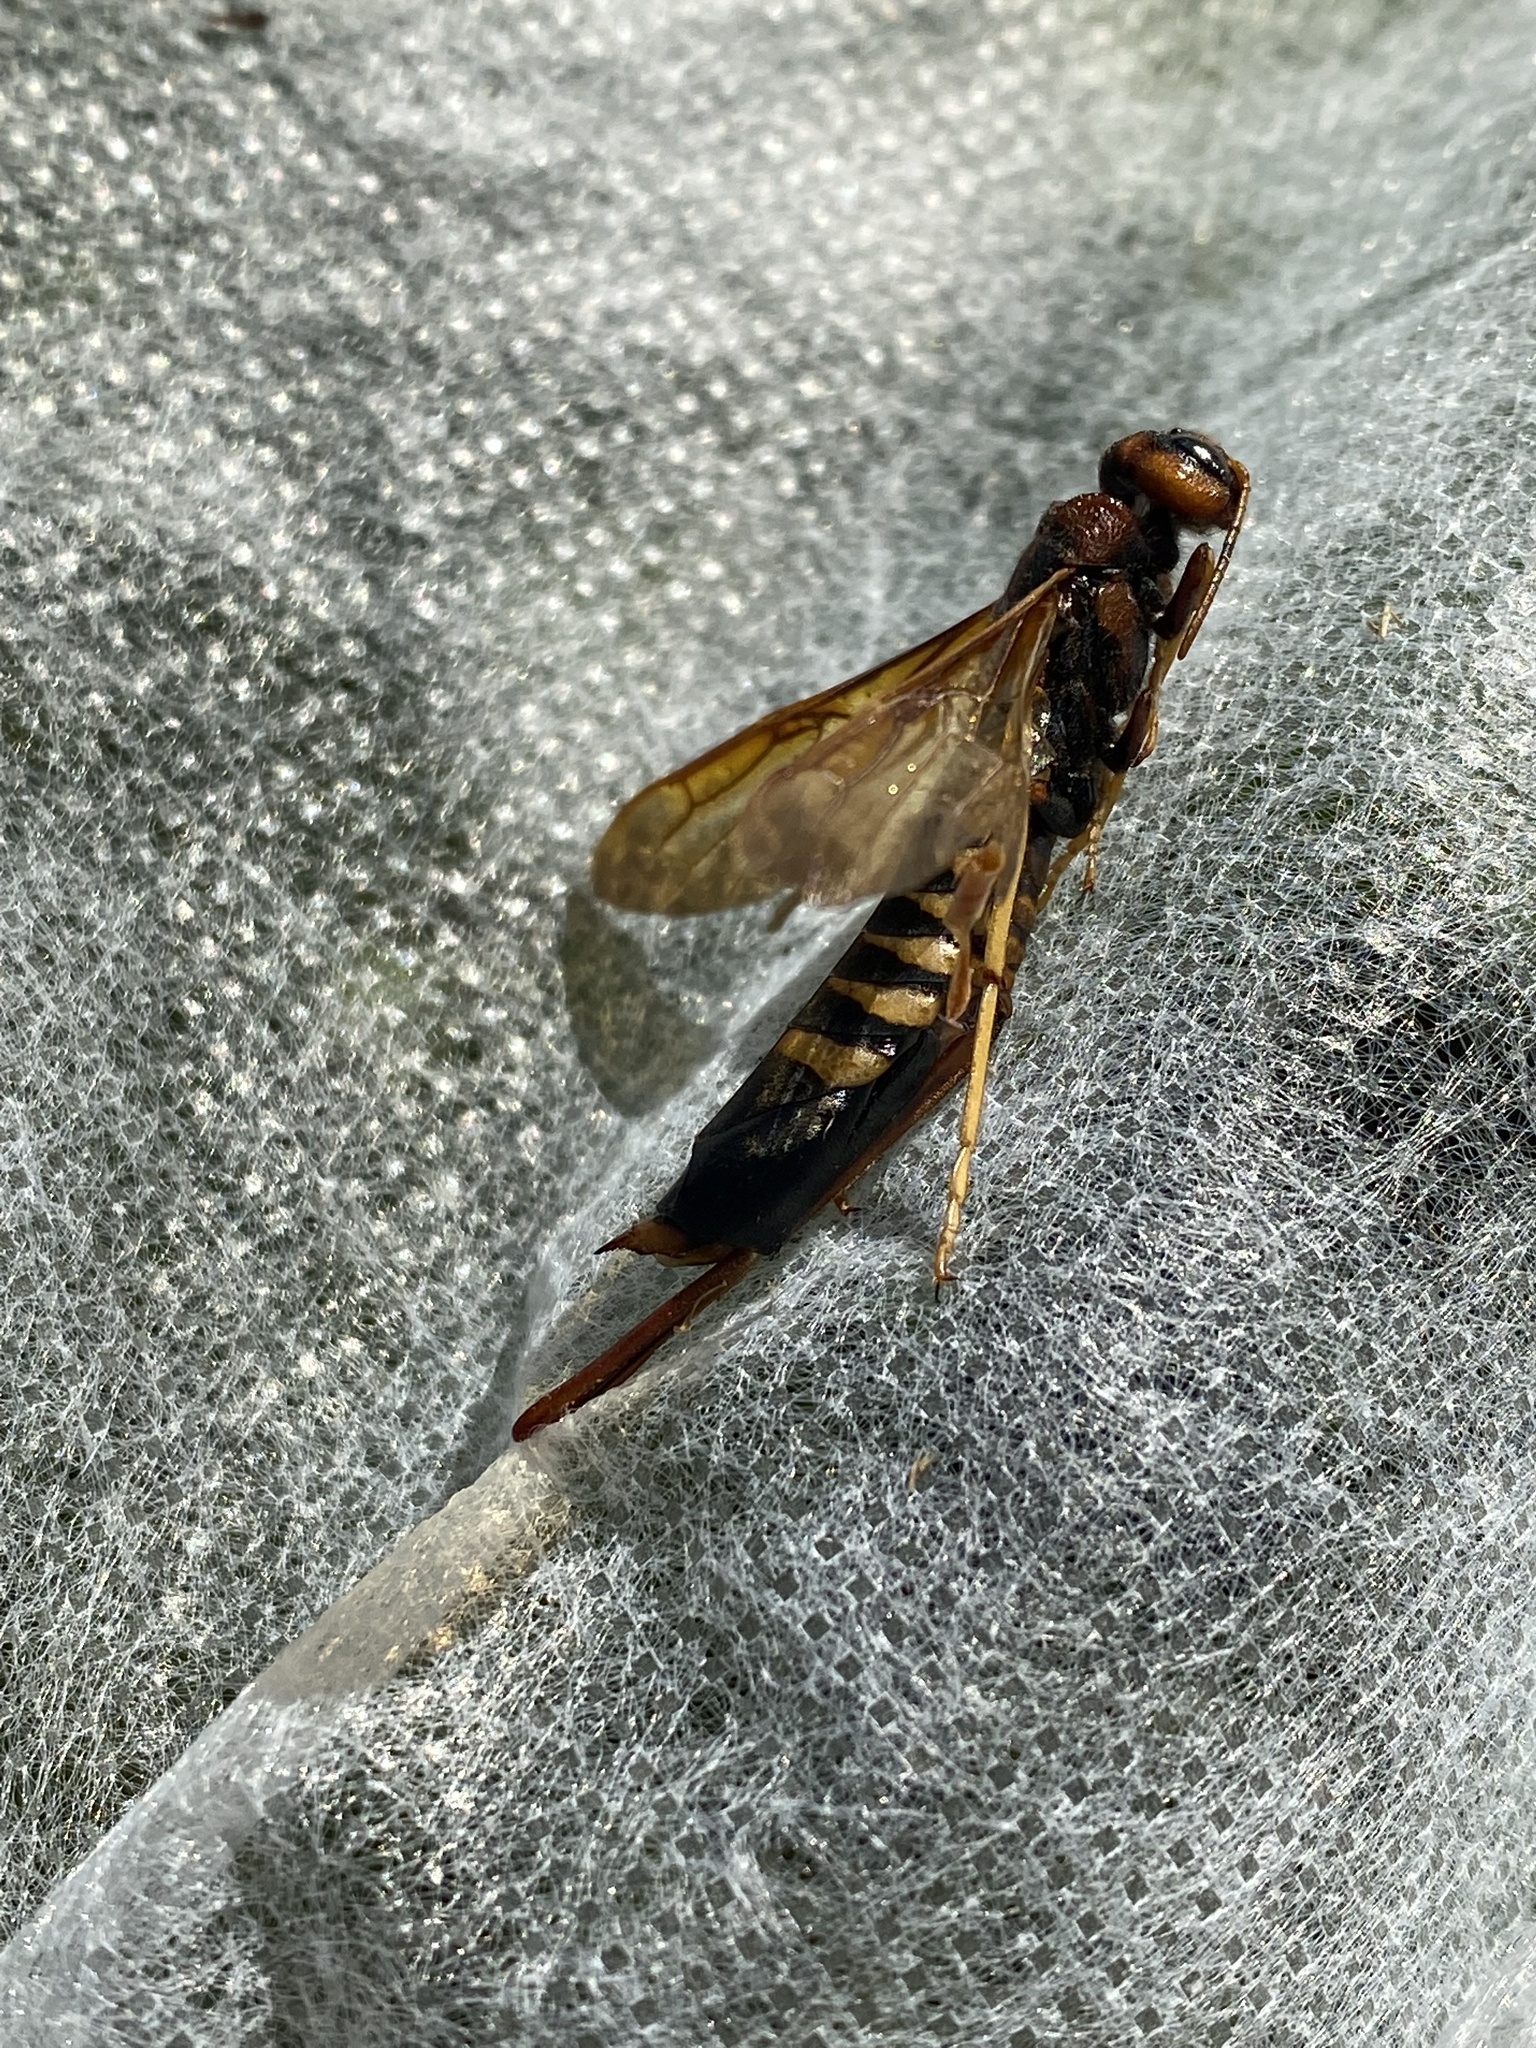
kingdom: Animalia
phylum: Arthropoda
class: Insecta
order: Hymenoptera
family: Siricidae
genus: Tremex
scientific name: Tremex columba
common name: Wasp
